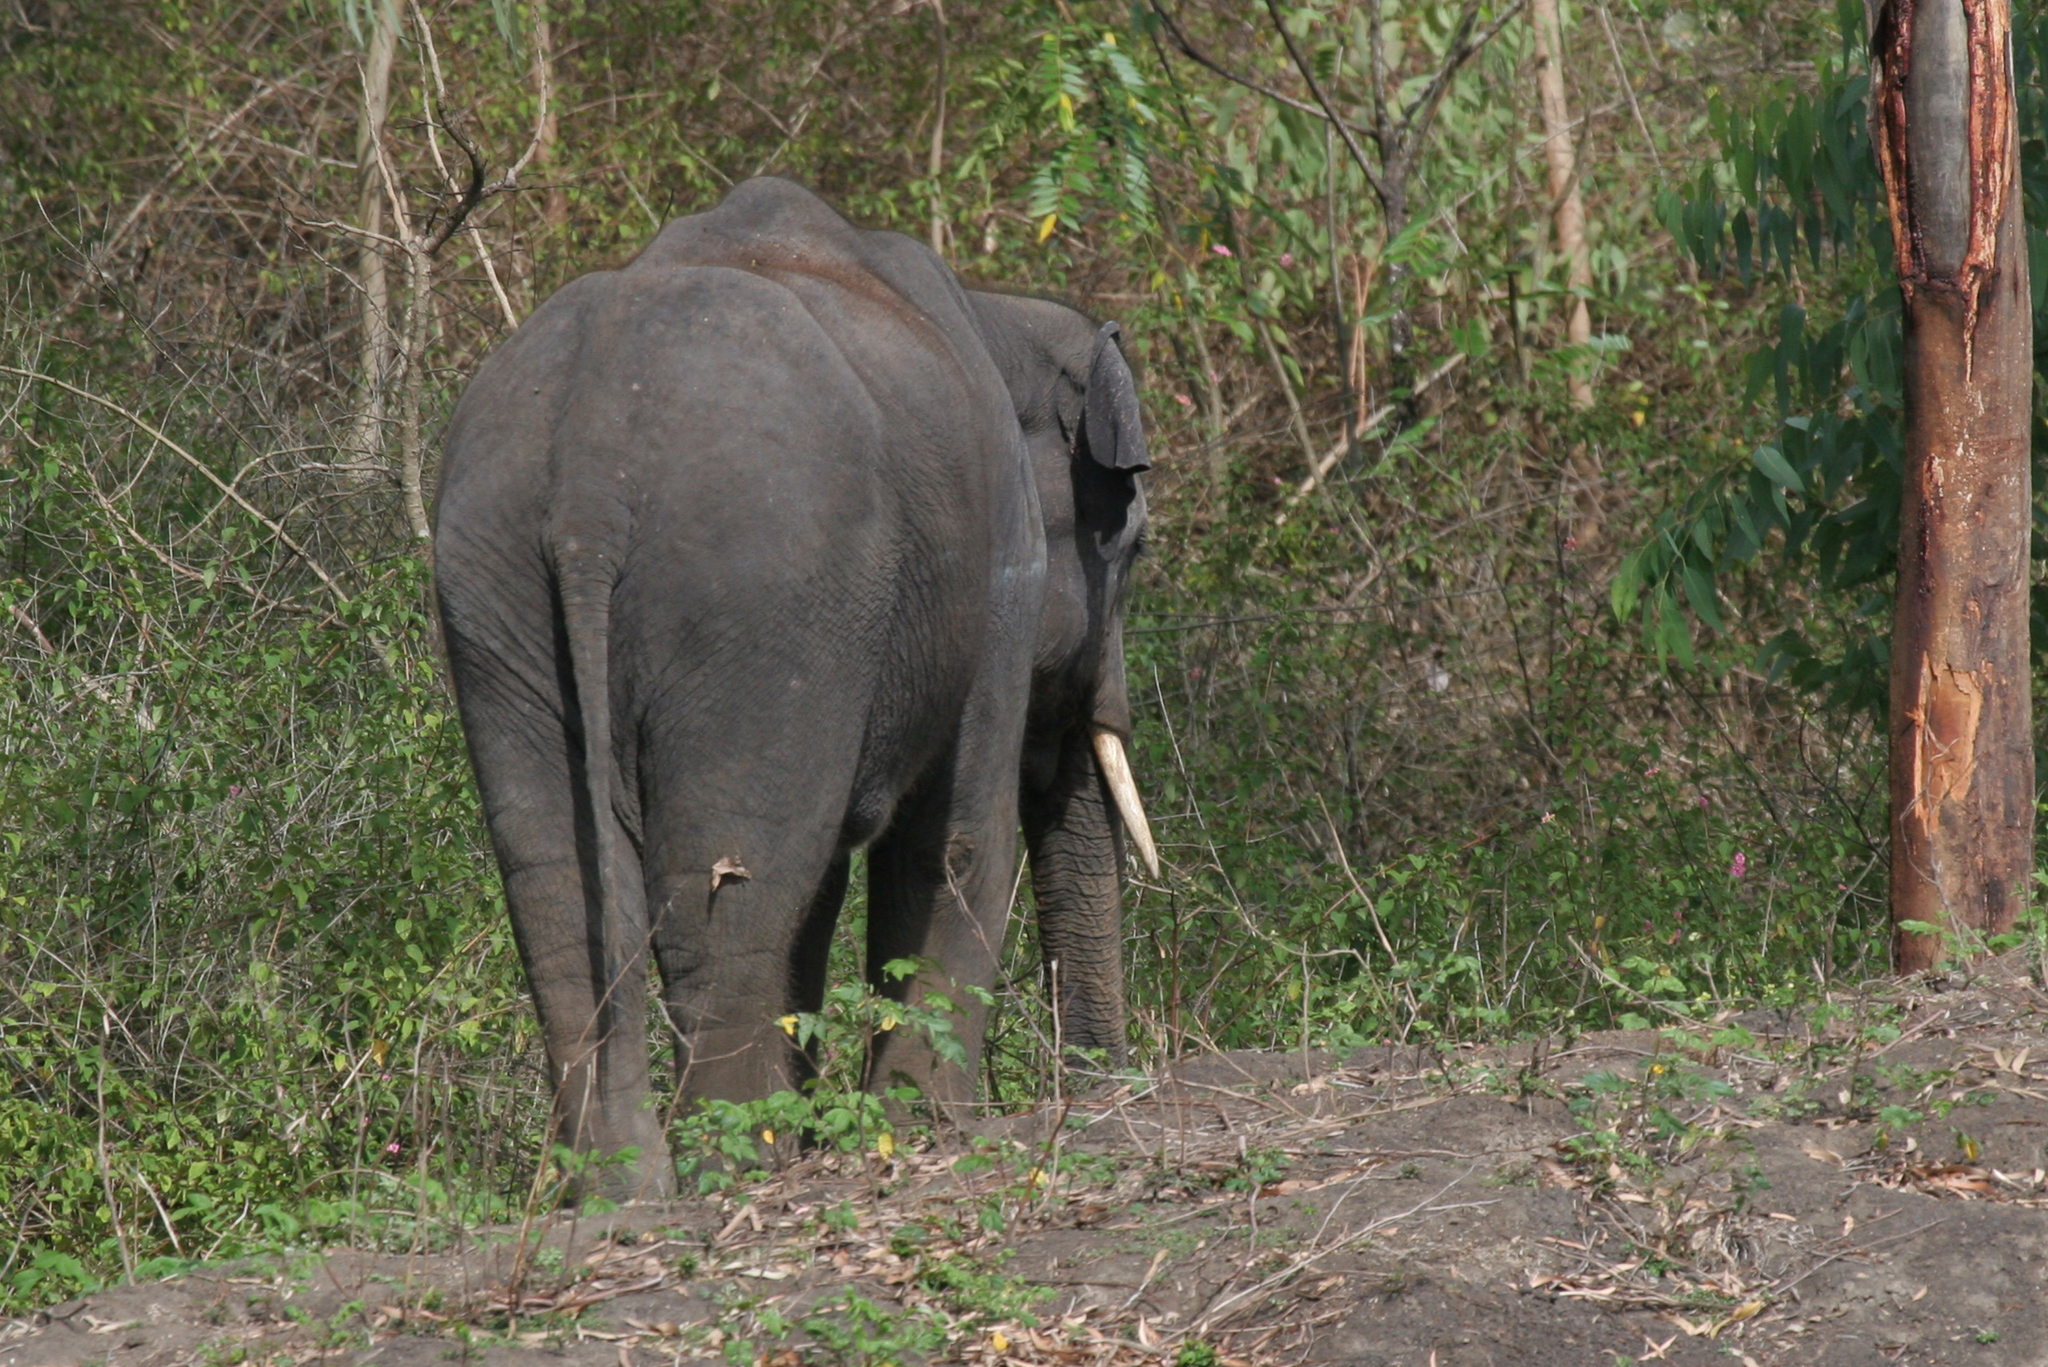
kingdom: Animalia
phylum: Chordata
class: Mammalia
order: Proboscidea
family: Elephantidae
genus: Elephas
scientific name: Elephas maximus
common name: Asian elephant
